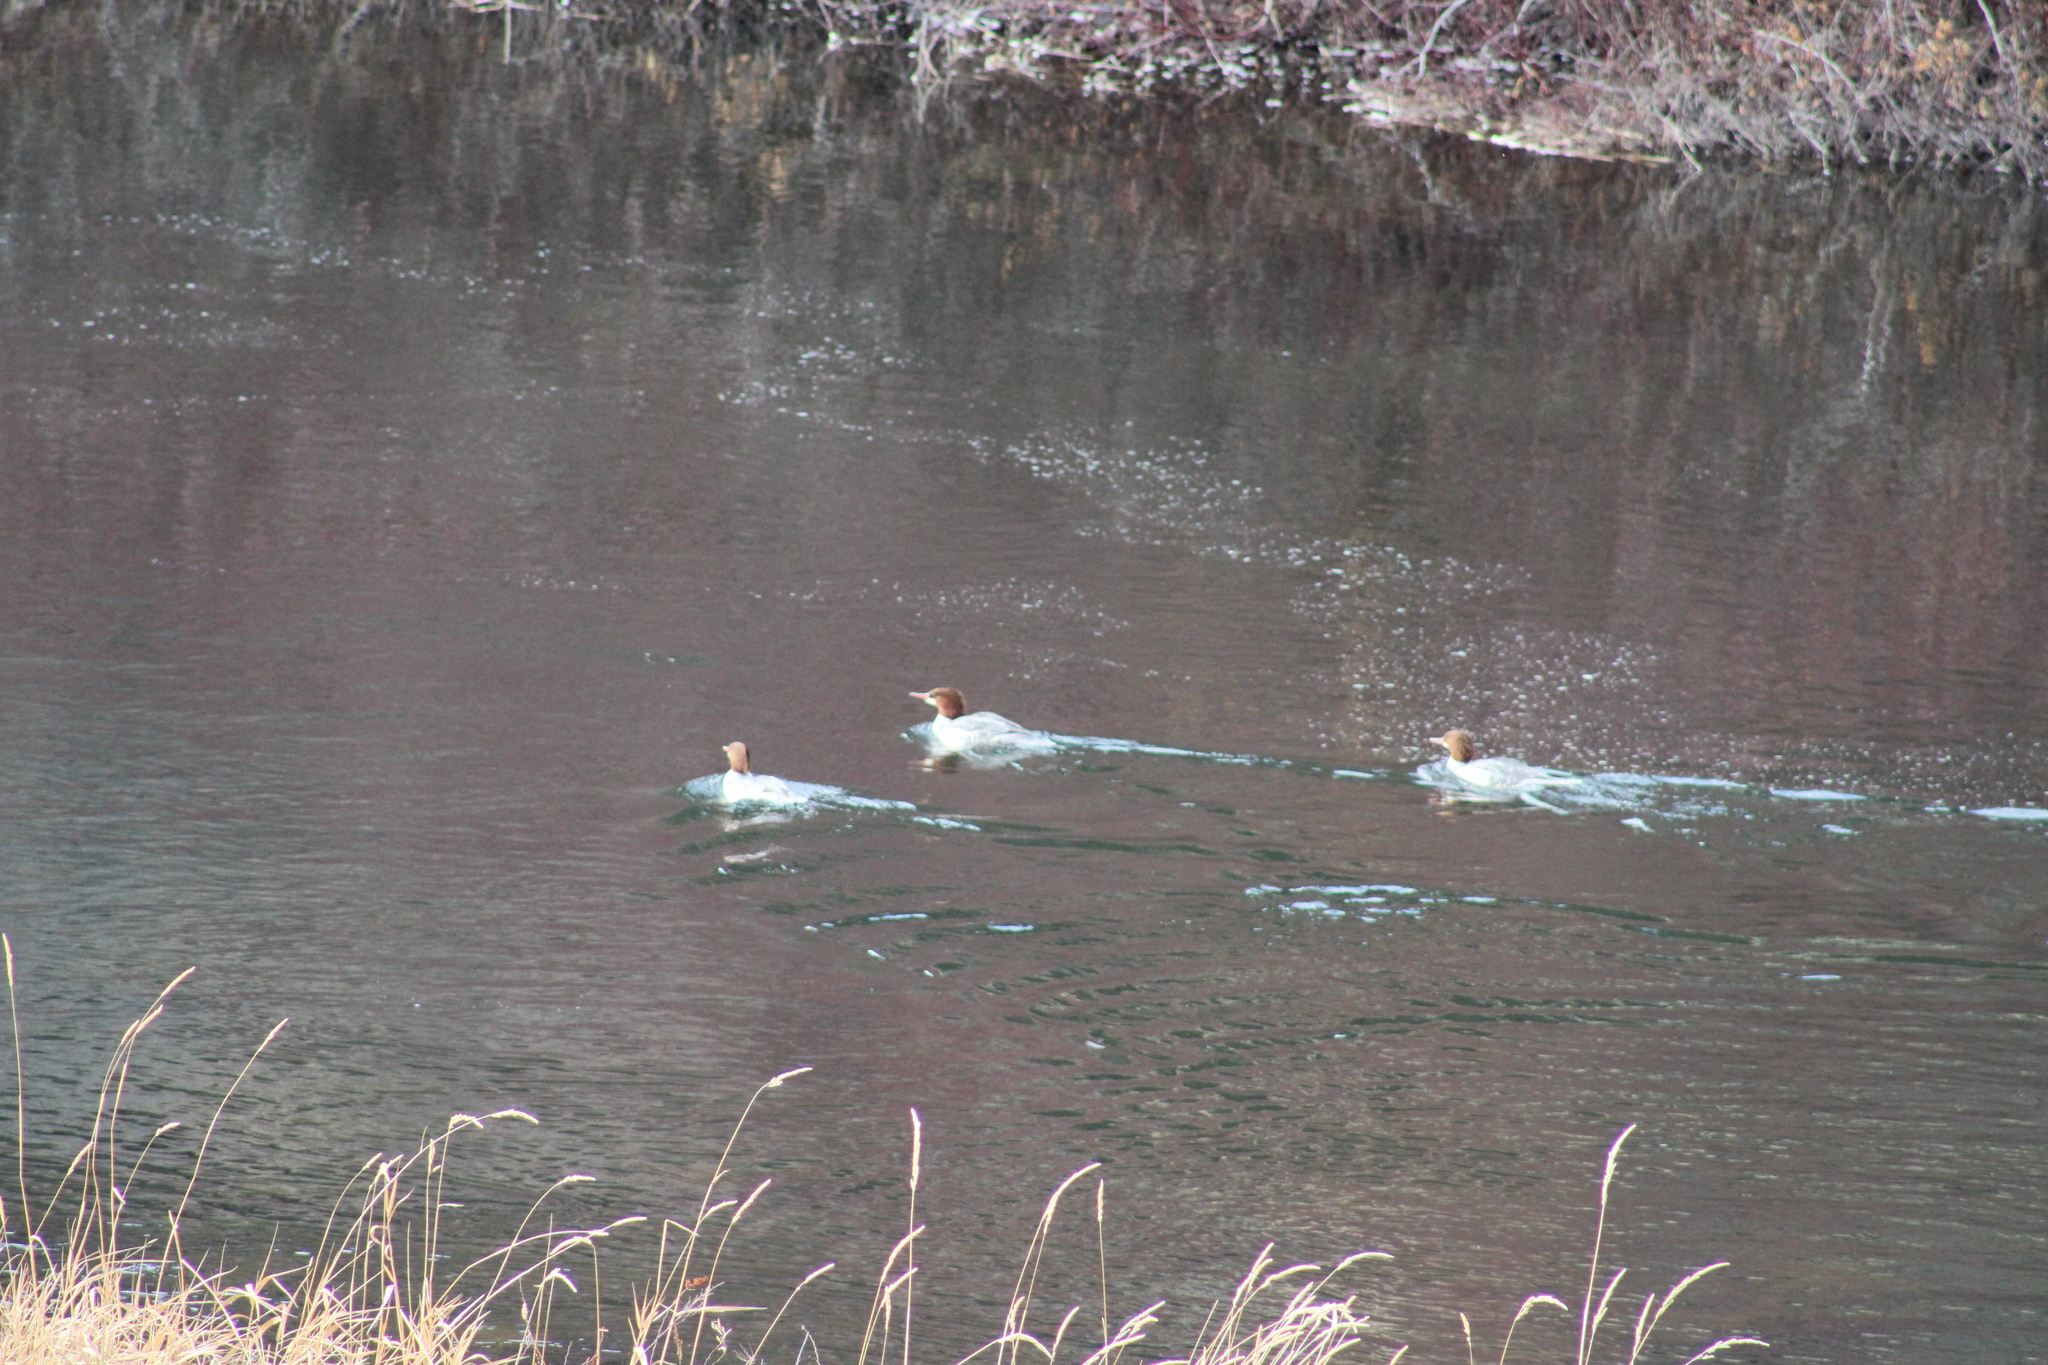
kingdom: Animalia
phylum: Chordata
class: Aves
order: Anseriformes
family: Anatidae
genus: Mergus
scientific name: Mergus merganser
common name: Common merganser
